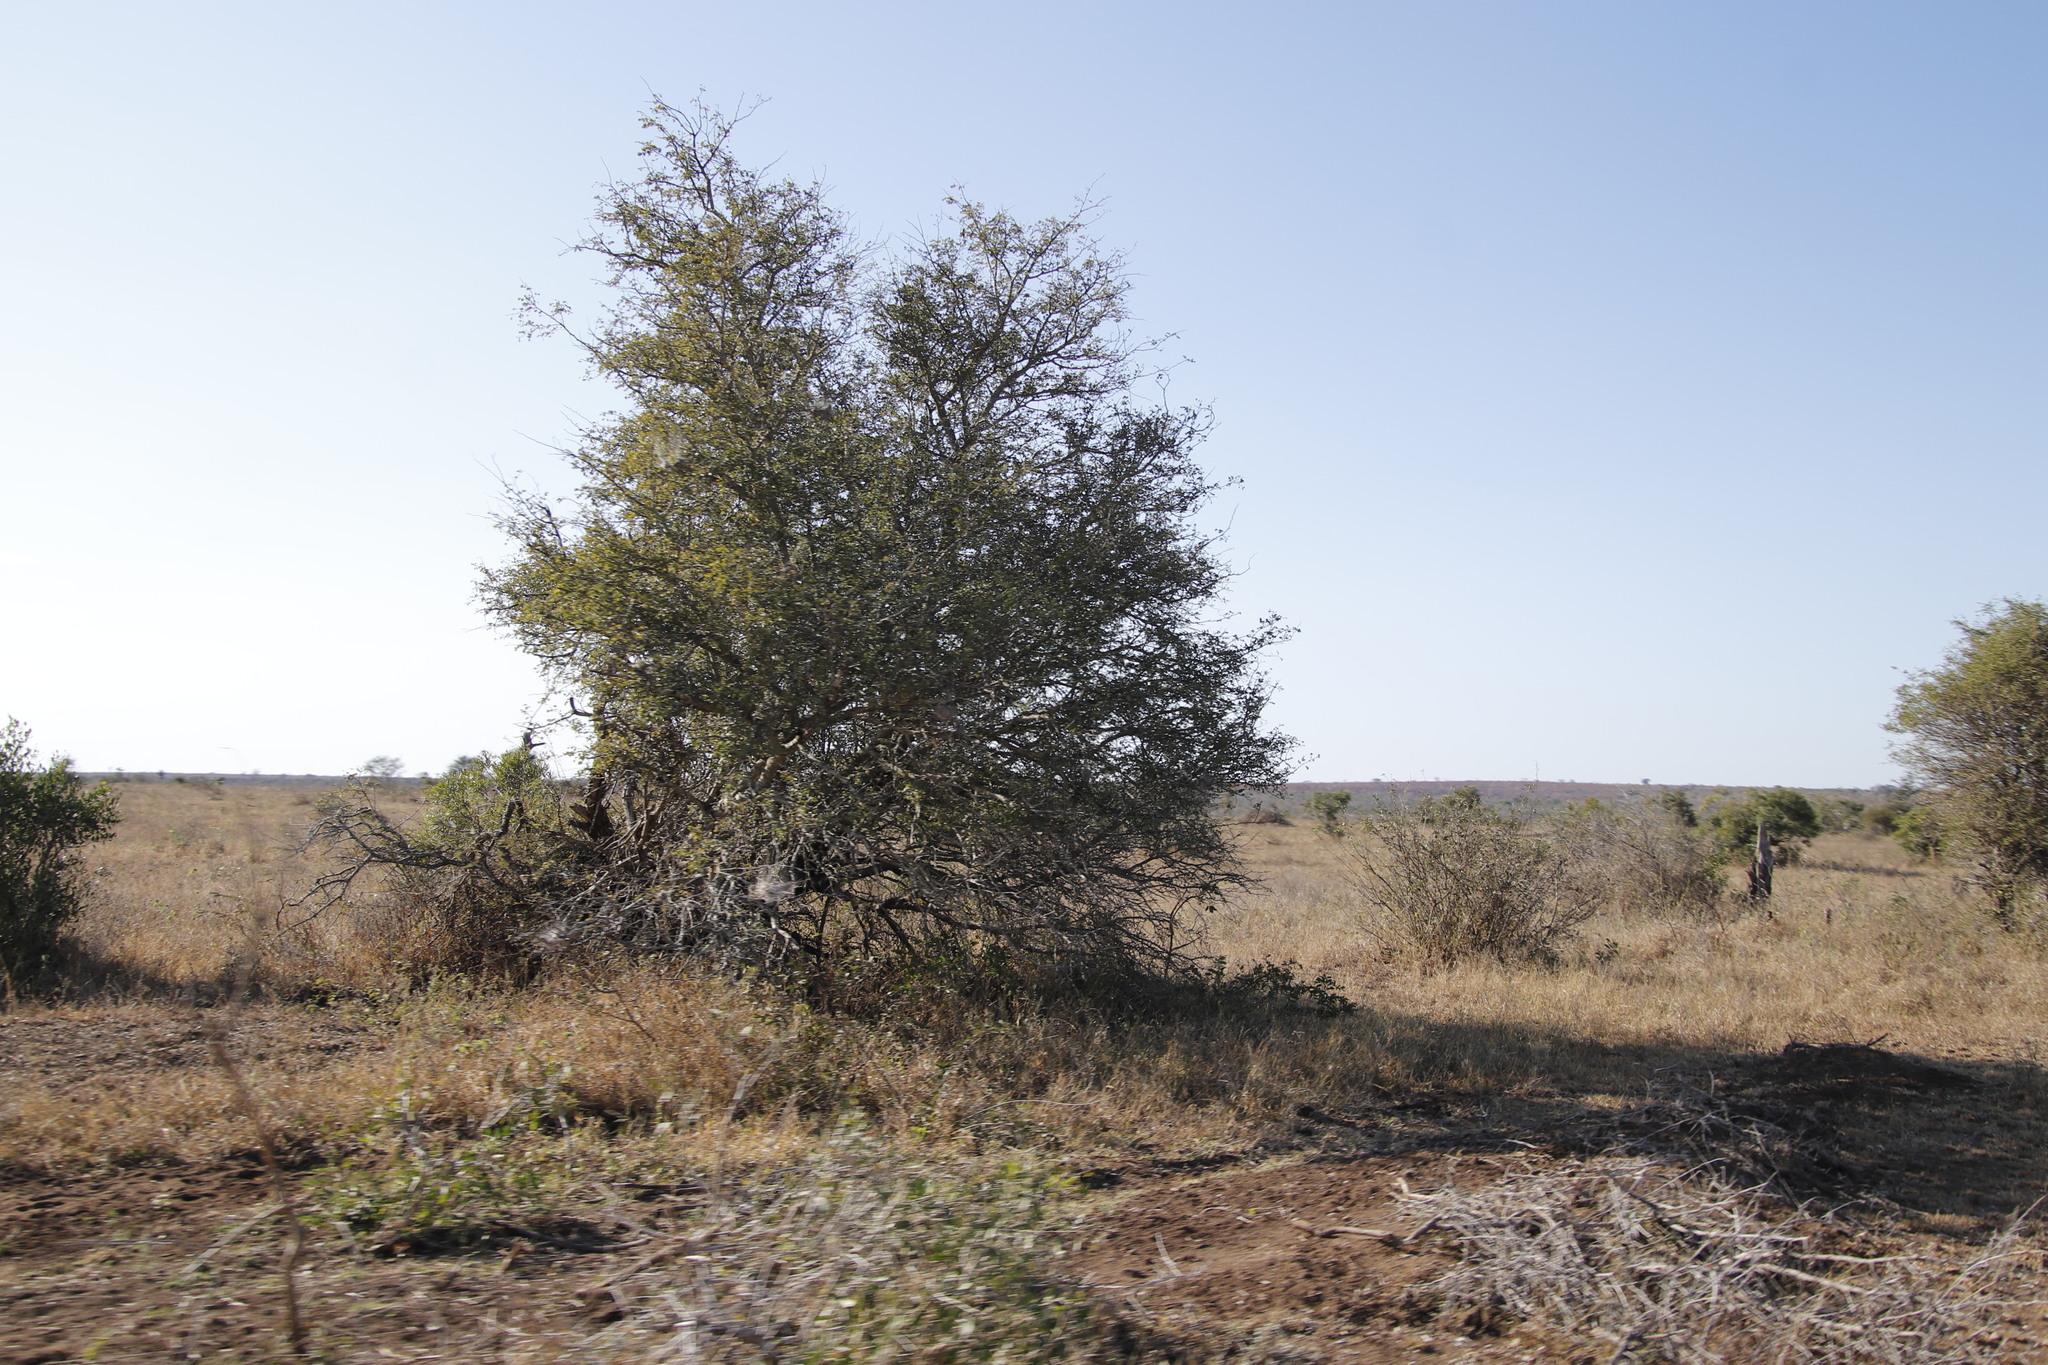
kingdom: Plantae
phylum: Tracheophyta
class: Magnoliopsida
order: Fabales
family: Fabaceae
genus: Senegalia
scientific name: Senegalia nigrescens
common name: Knobthorn
